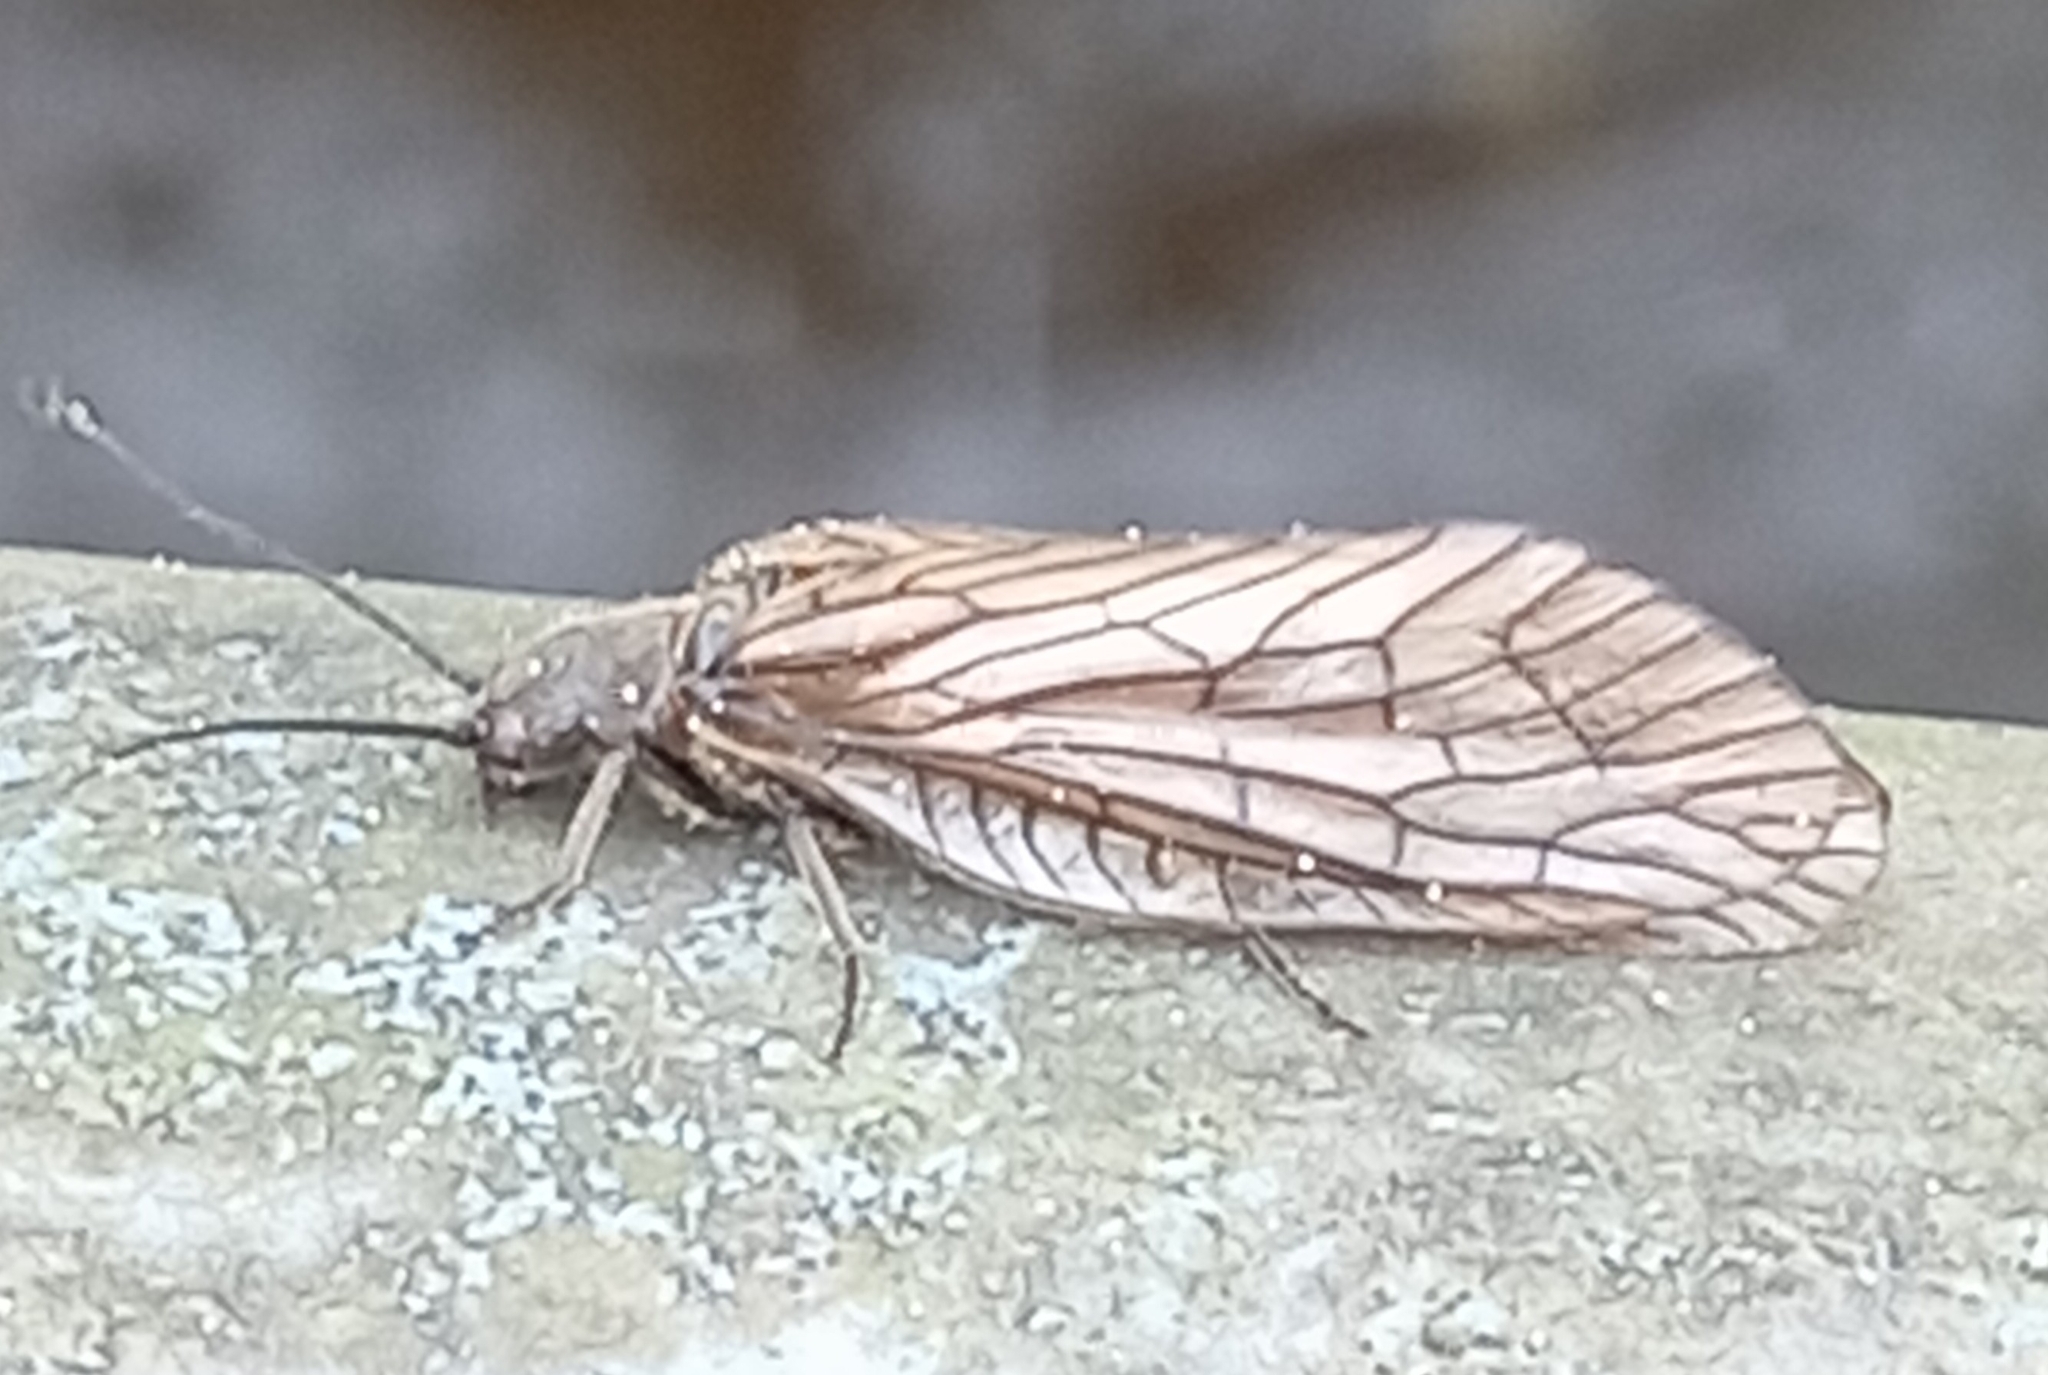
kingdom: Animalia
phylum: Arthropoda
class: Insecta
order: Megaloptera
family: Sialidae
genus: Sialis
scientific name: Sialis
